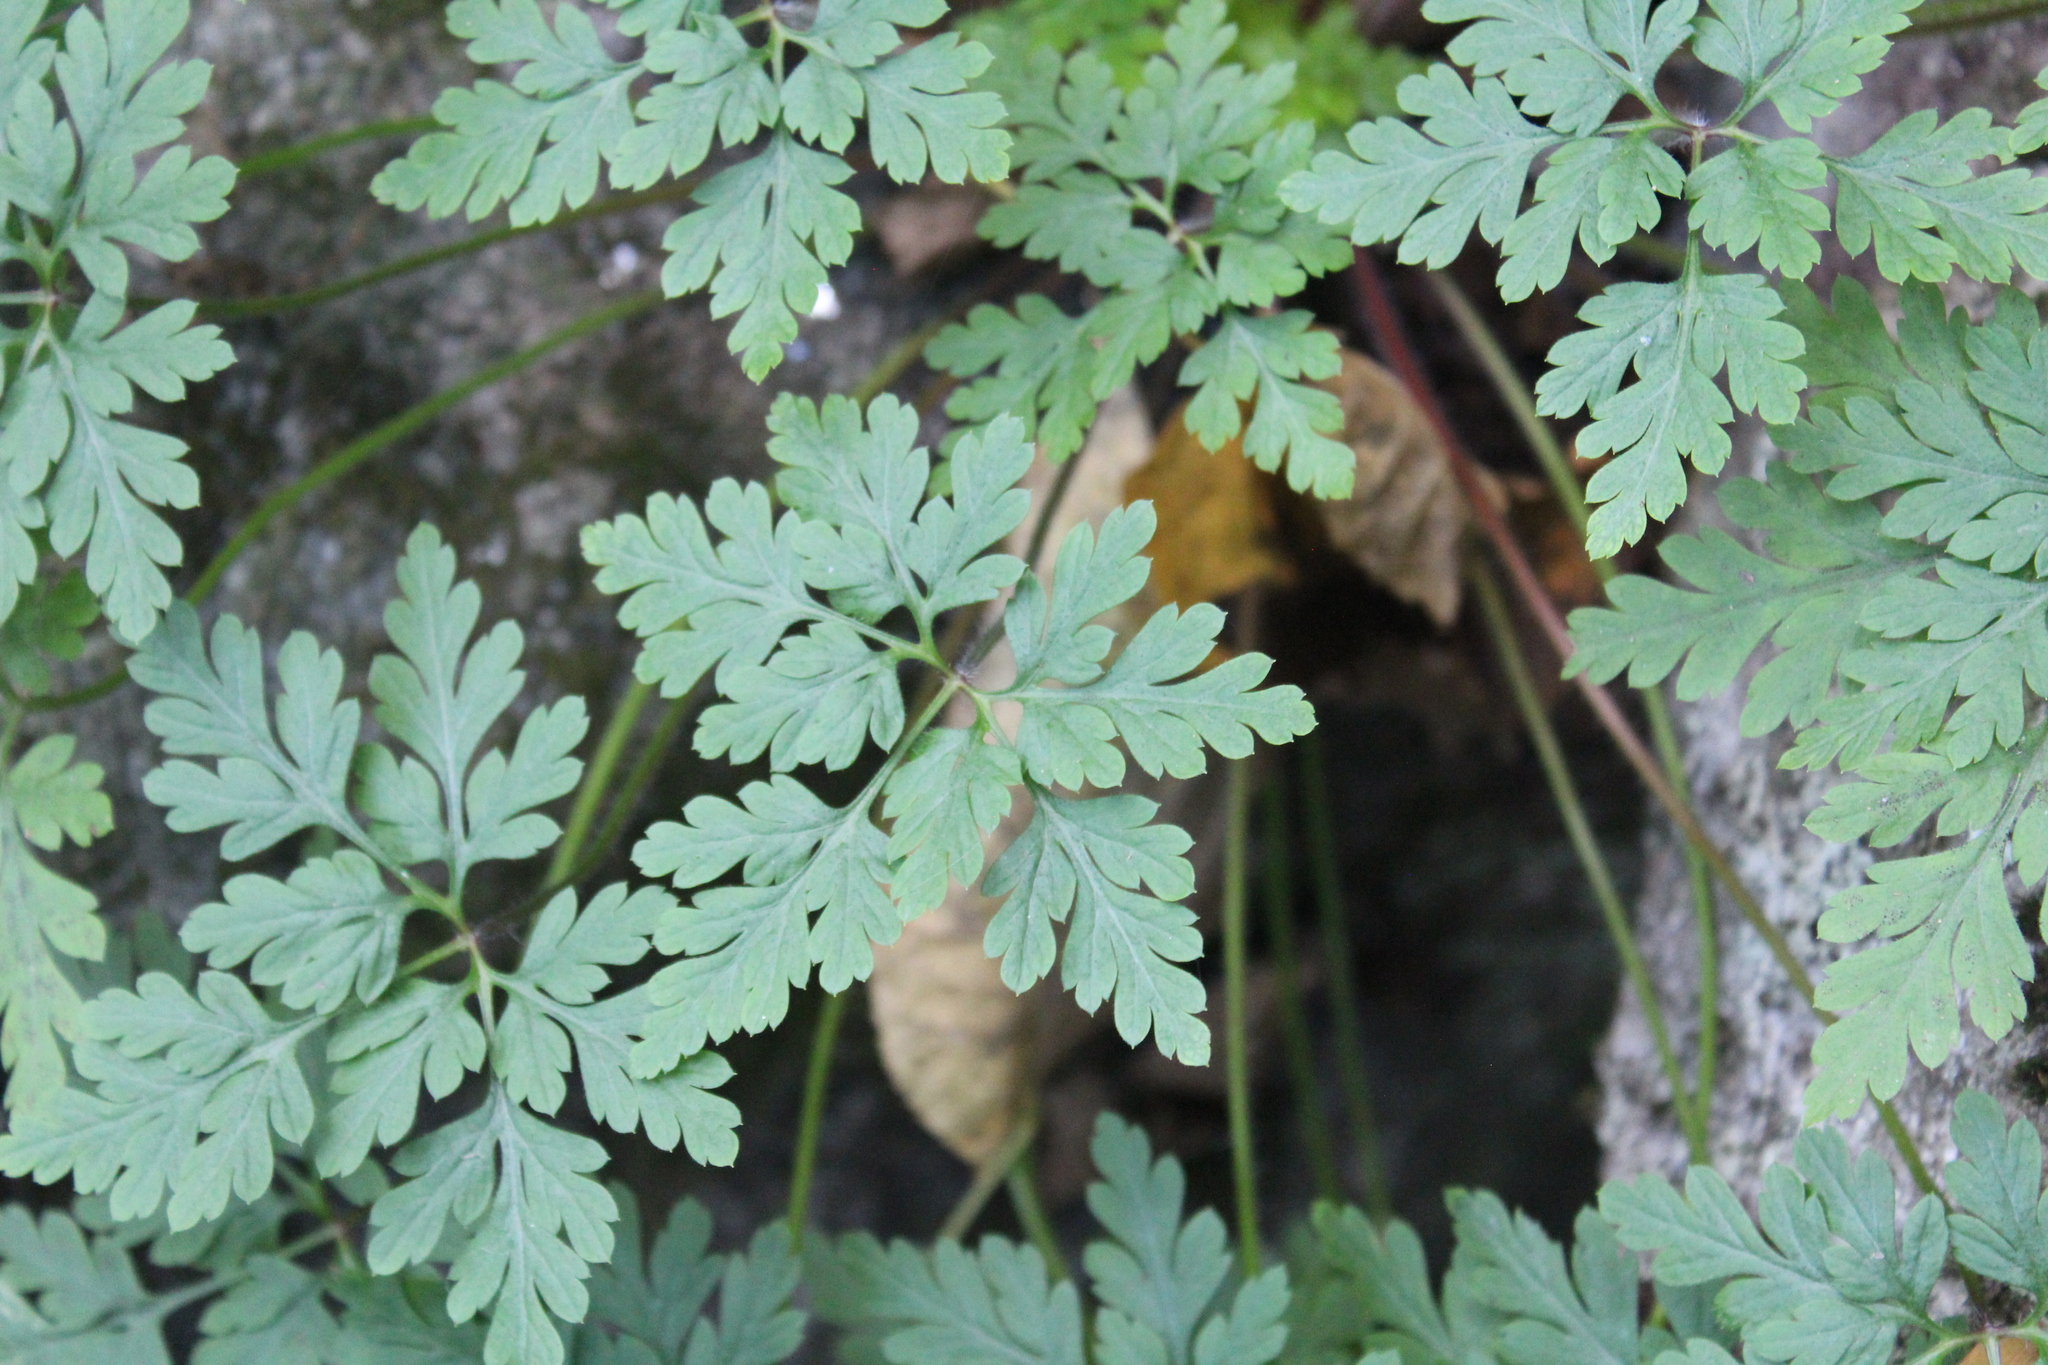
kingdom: Plantae
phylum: Tracheophyta
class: Magnoliopsida
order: Geraniales
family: Geraniaceae
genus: Geranium
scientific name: Geranium robertianum
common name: Herb-robert
